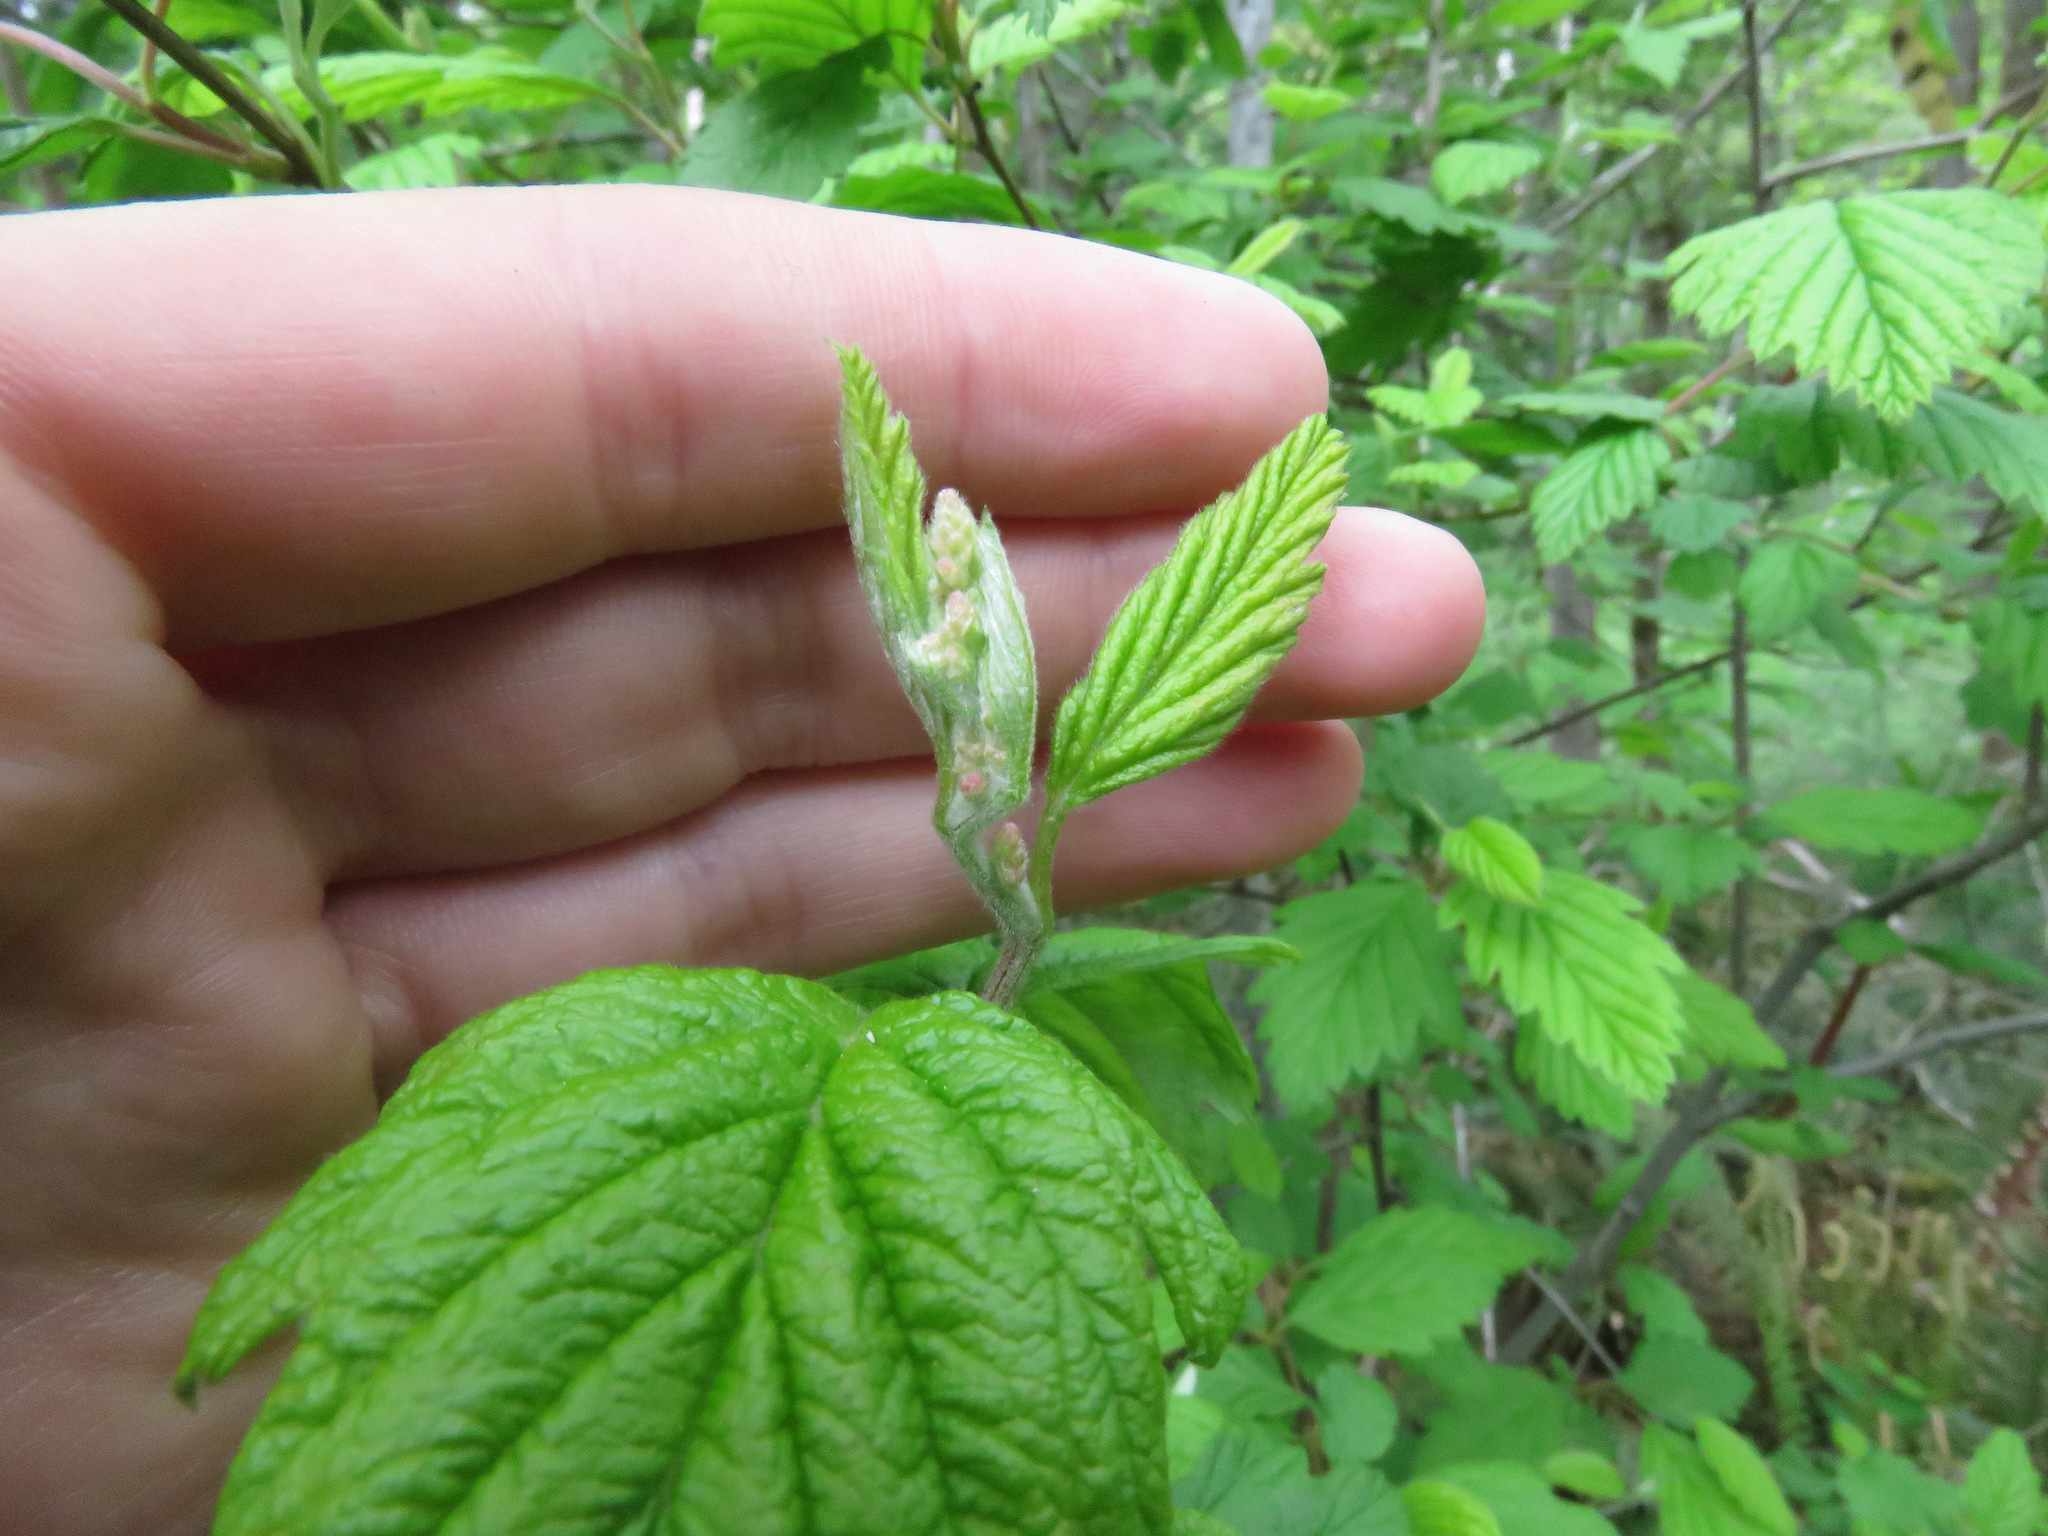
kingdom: Plantae
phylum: Tracheophyta
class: Magnoliopsida
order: Rosales
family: Rosaceae
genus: Holodiscus
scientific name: Holodiscus discolor
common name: Oceanspray
